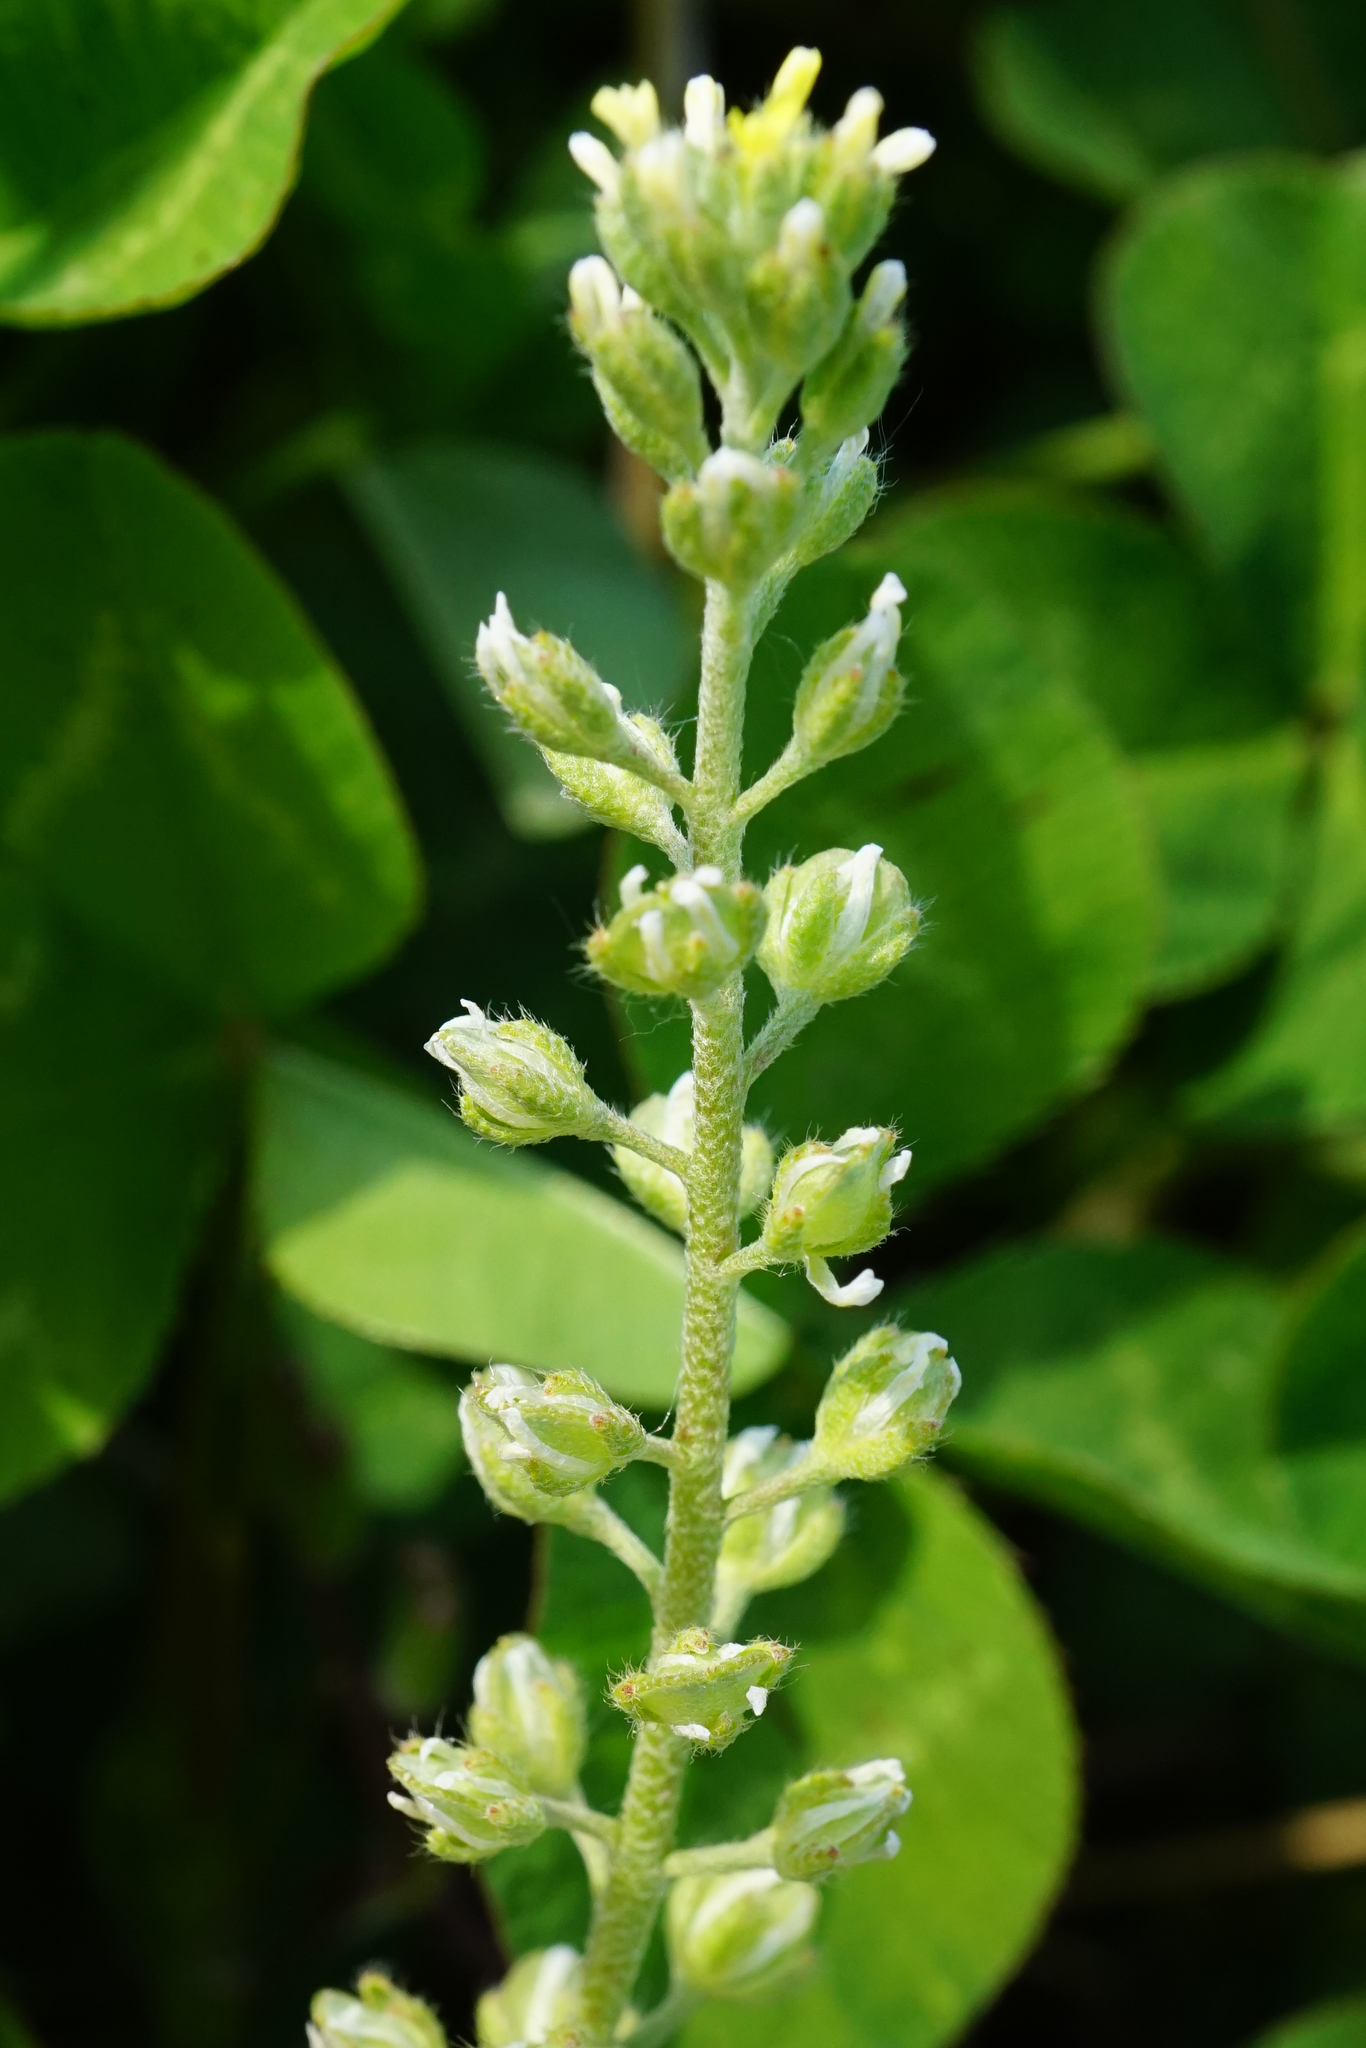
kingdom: Plantae
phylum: Tracheophyta
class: Magnoliopsida
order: Brassicales
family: Brassicaceae
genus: Alyssum
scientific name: Alyssum alyssoides
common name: Small alison
